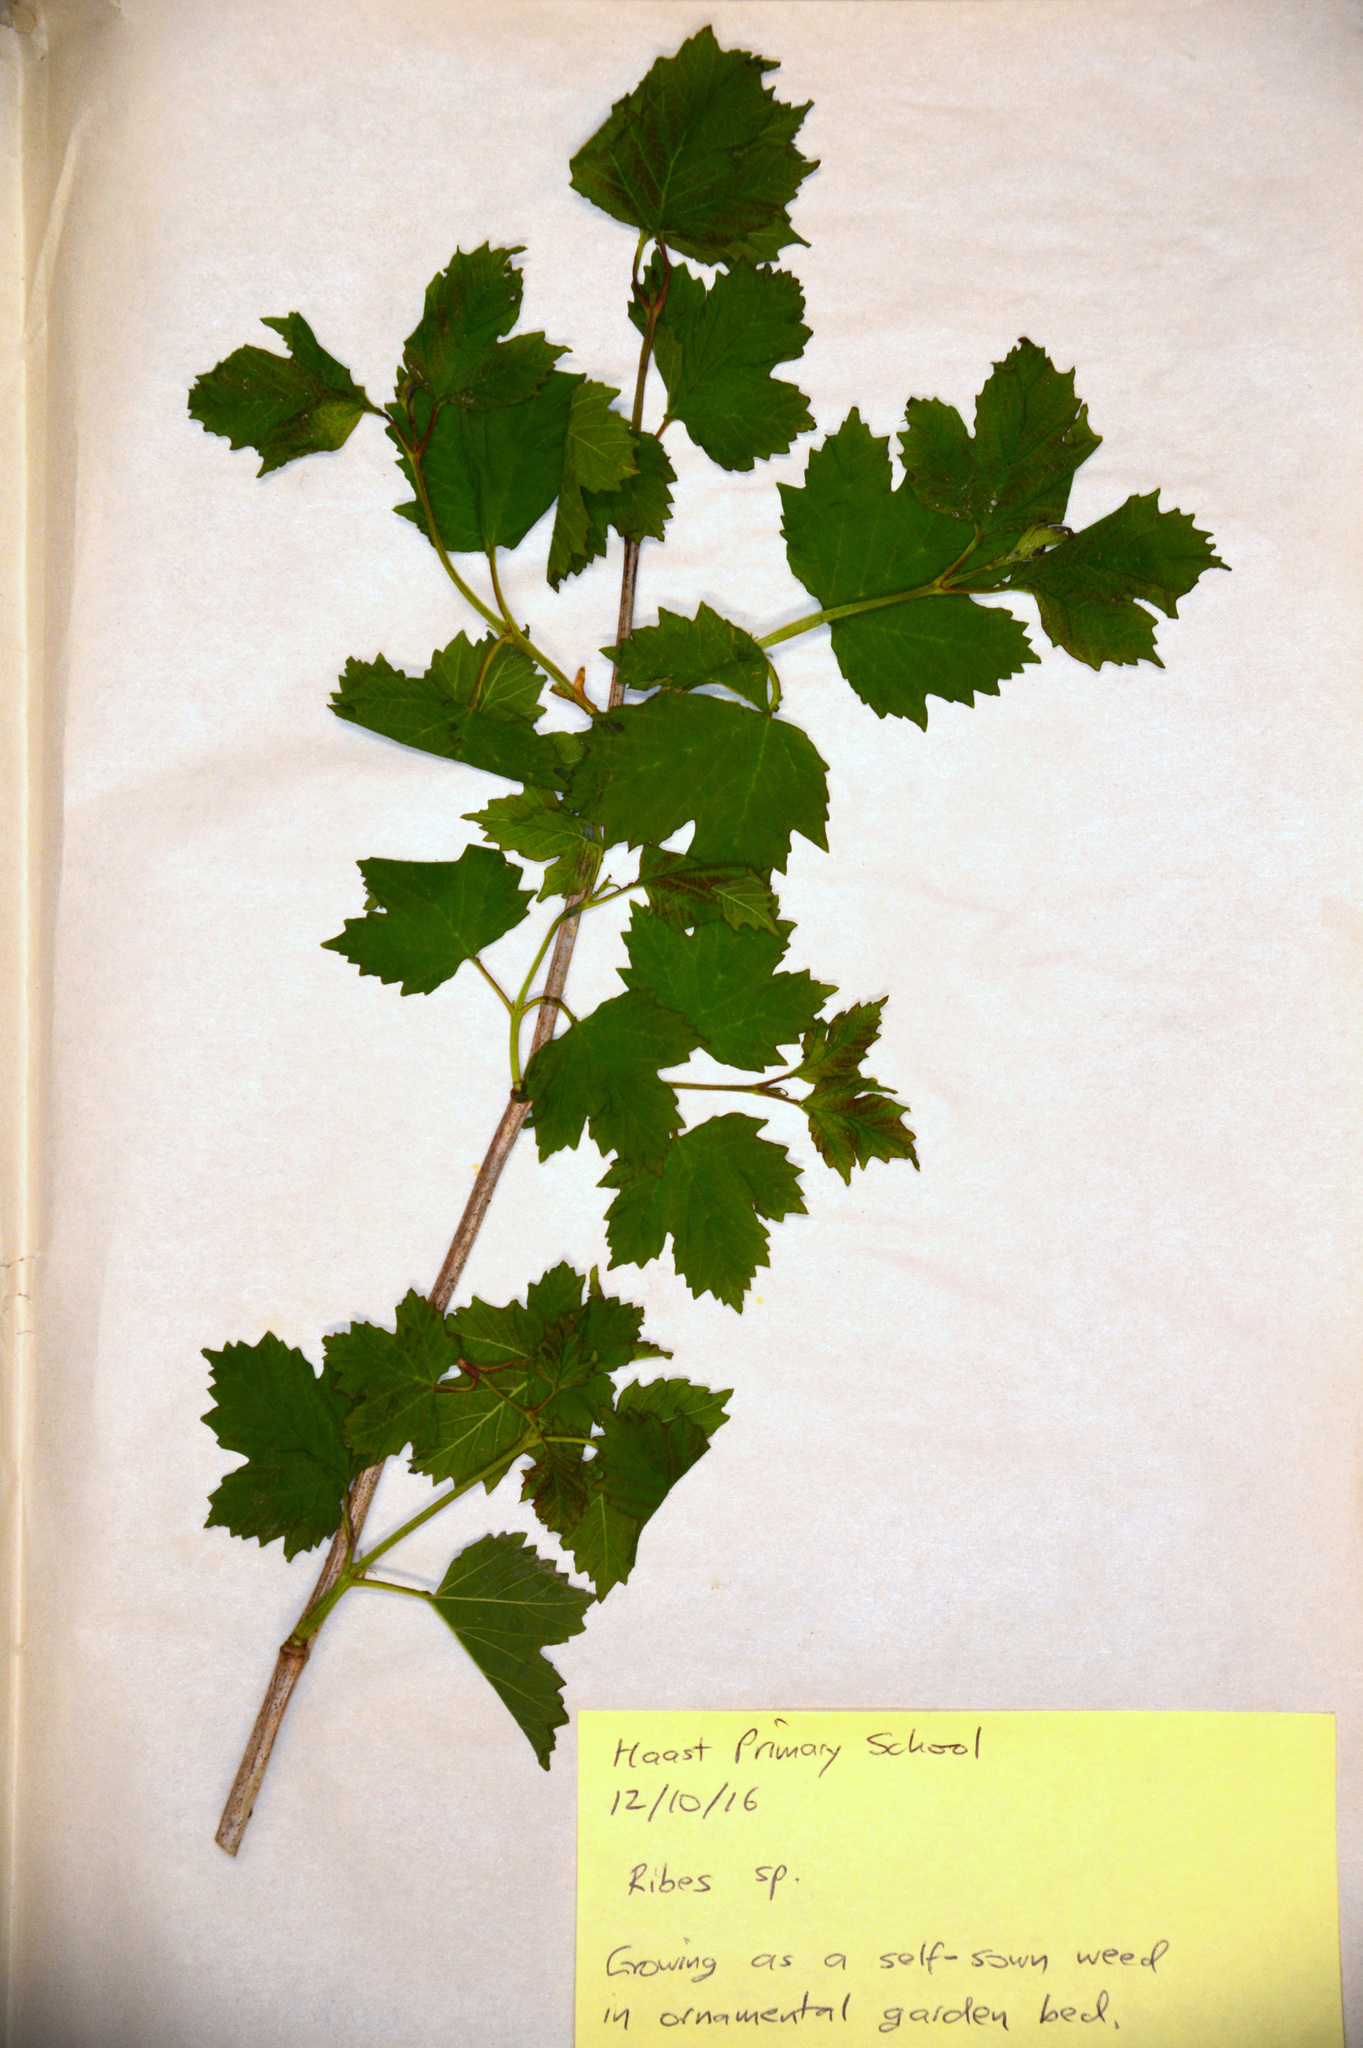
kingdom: Plantae
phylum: Tracheophyta
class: Magnoliopsida
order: Dipsacales
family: Viburnaceae
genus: Viburnum
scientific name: Viburnum opulus
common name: Guelder-rose
